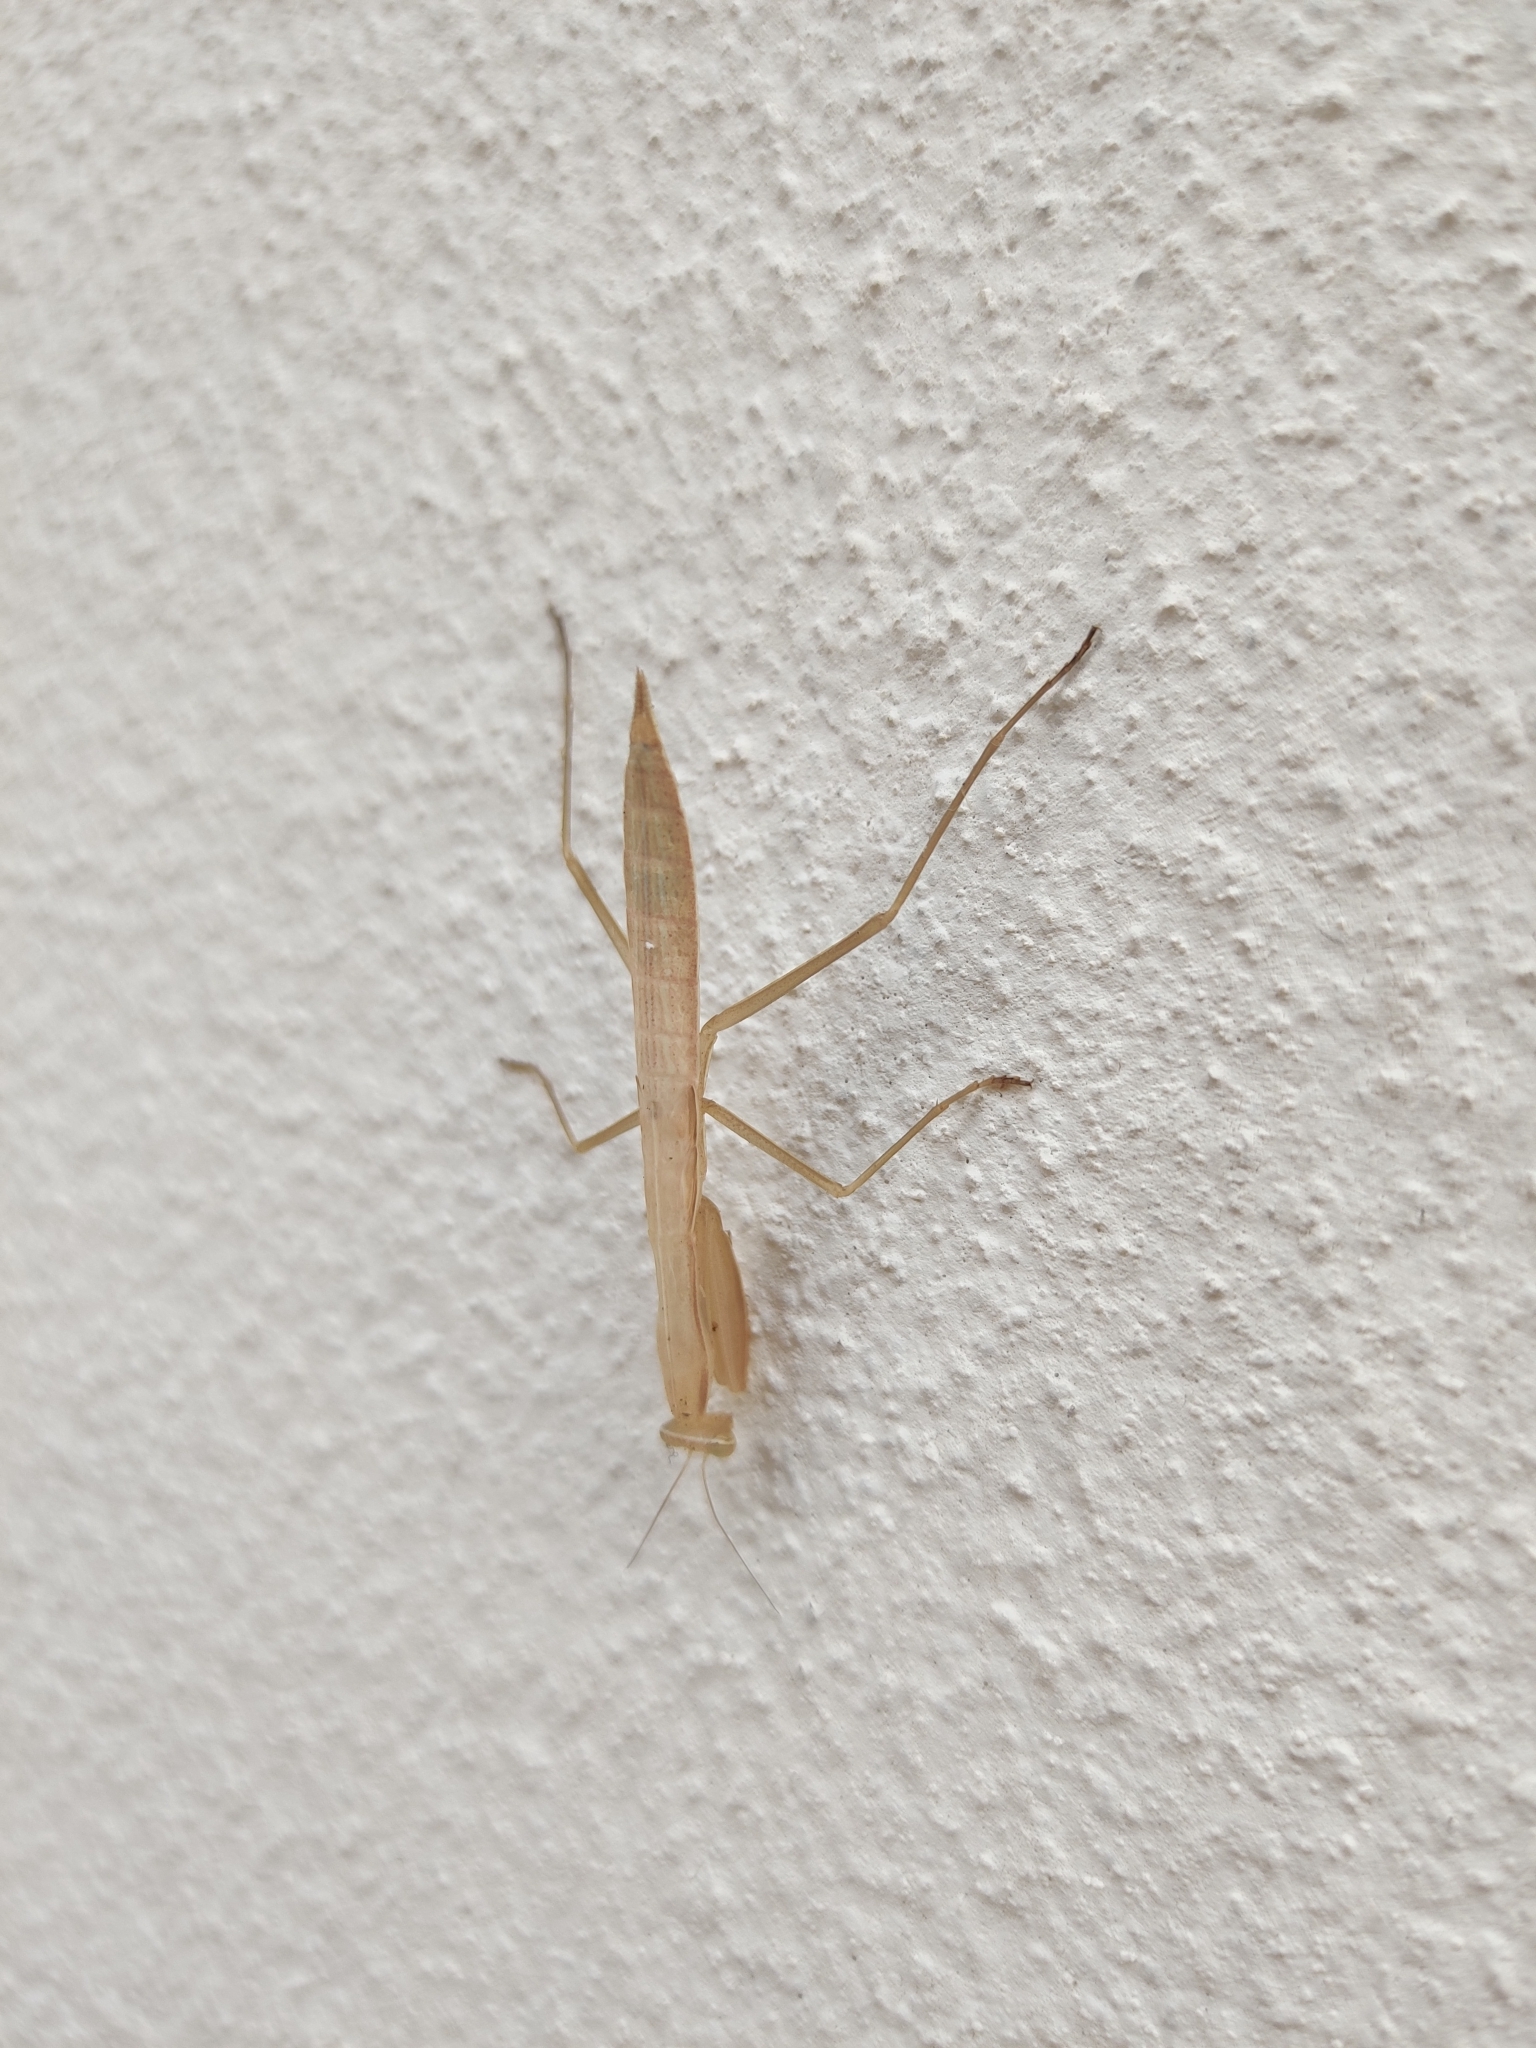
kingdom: Animalia
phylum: Arthropoda
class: Insecta
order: Mantodea
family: Mantidae
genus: Mantis
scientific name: Mantis religiosa
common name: Praying mantis
